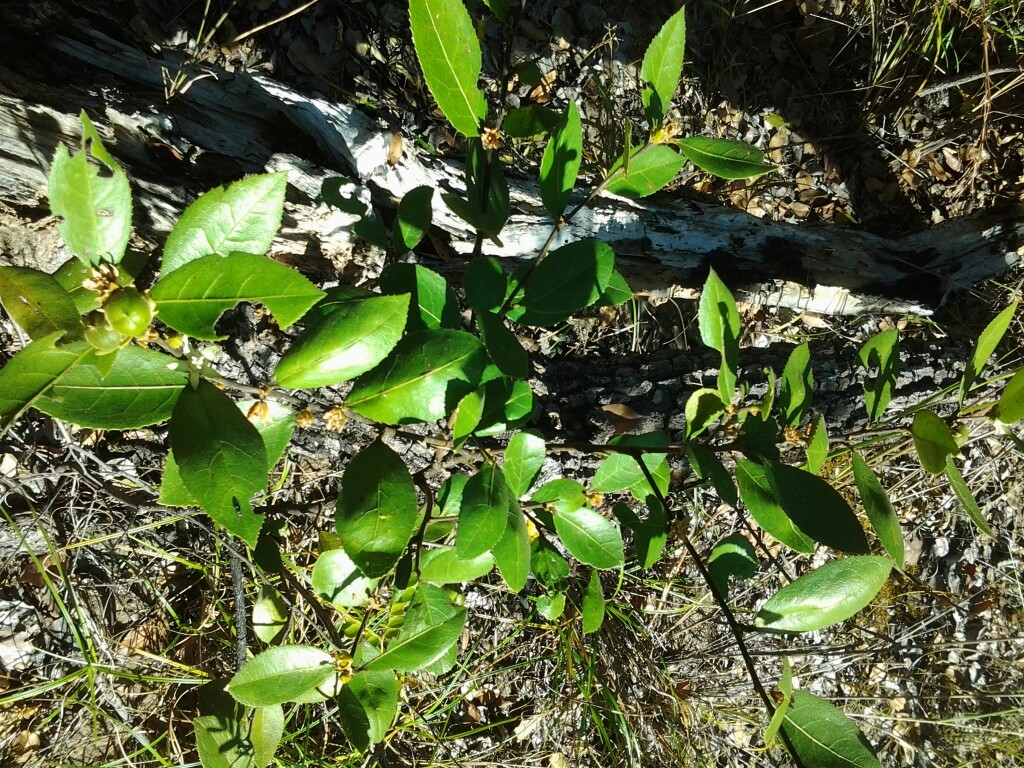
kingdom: Plantae
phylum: Tracheophyta
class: Magnoliopsida
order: Malpighiales
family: Passifloraceae
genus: Paropsia
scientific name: Paropsia brazzaeana
